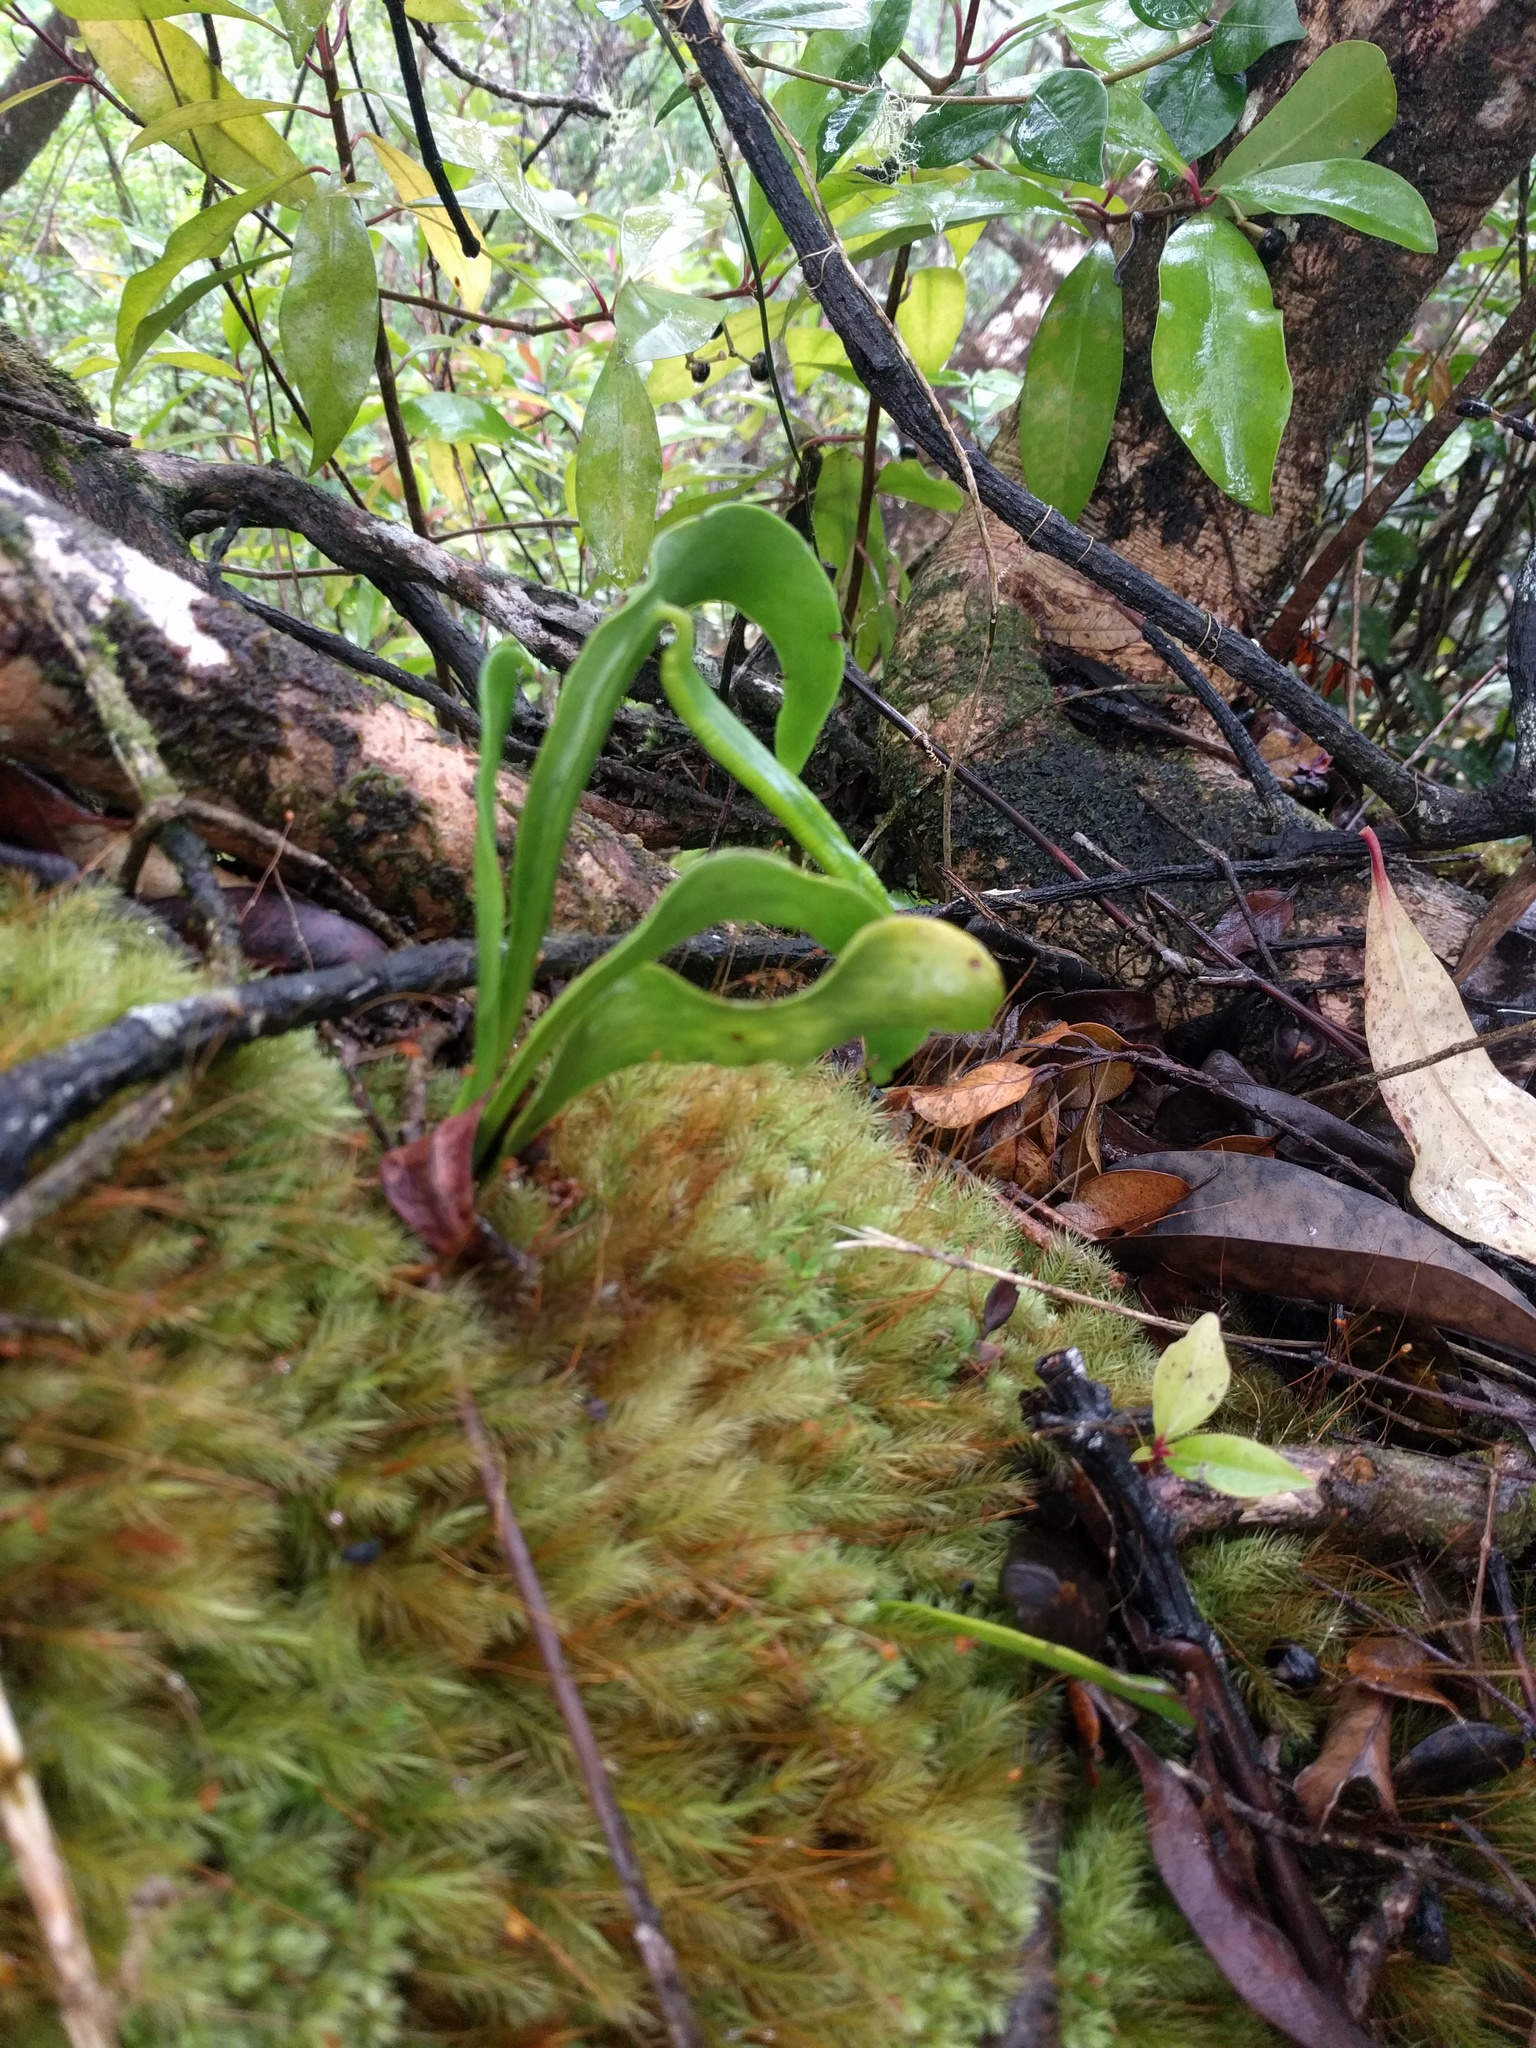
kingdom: Plantae
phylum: Tracheophyta
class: Polypodiopsida
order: Ophioglossales
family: Ophioglossaceae
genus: Ophioderma
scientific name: Ophioderma falcatum
